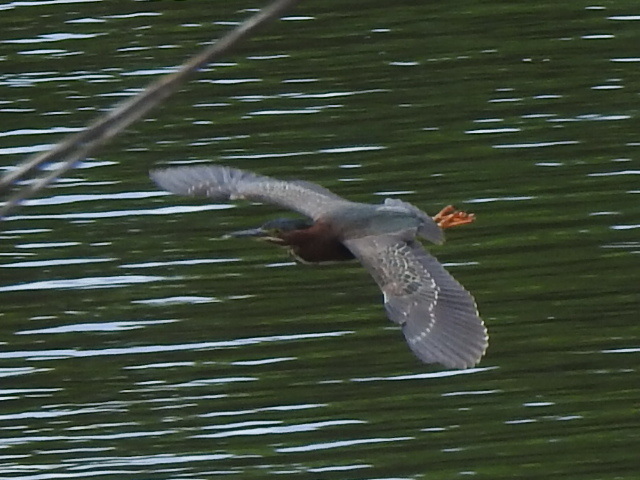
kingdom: Animalia
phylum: Chordata
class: Aves
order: Pelecaniformes
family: Ardeidae
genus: Butorides
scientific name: Butorides virescens
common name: Green heron
